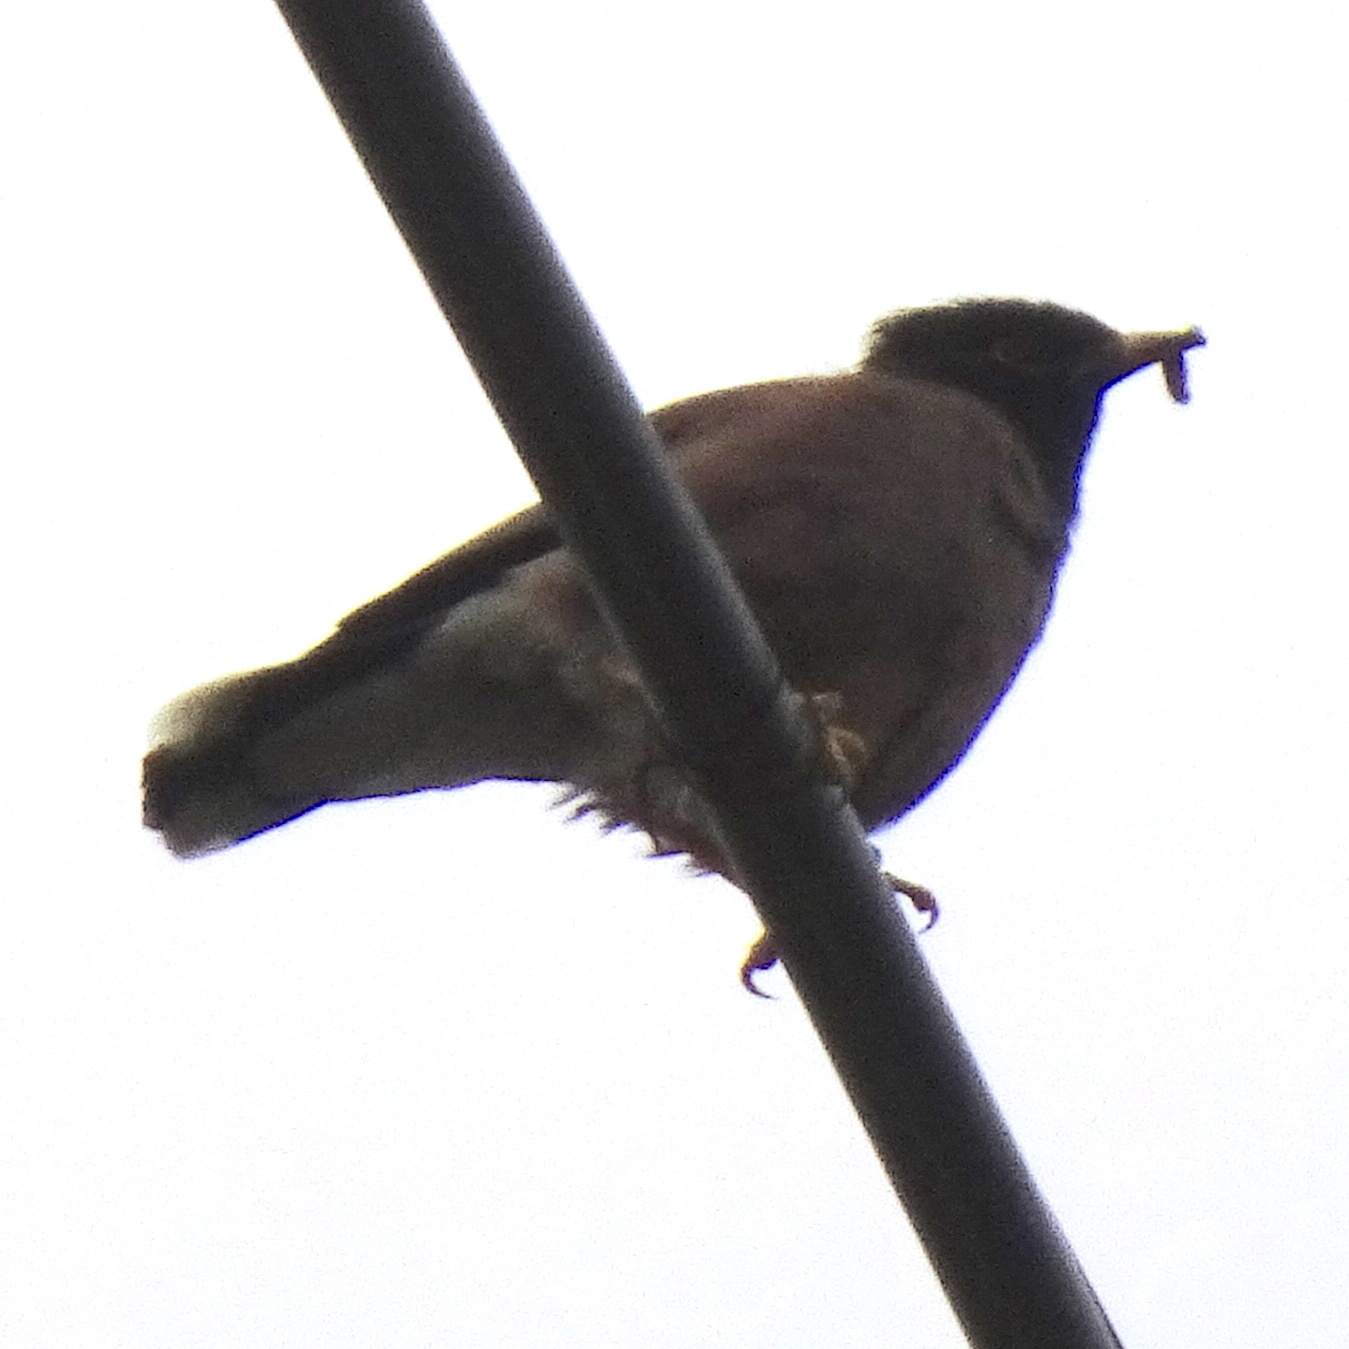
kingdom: Animalia
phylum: Chordata
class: Aves
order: Passeriformes
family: Sturnidae
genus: Acridotheres
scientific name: Acridotheres tristis
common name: Common myna
